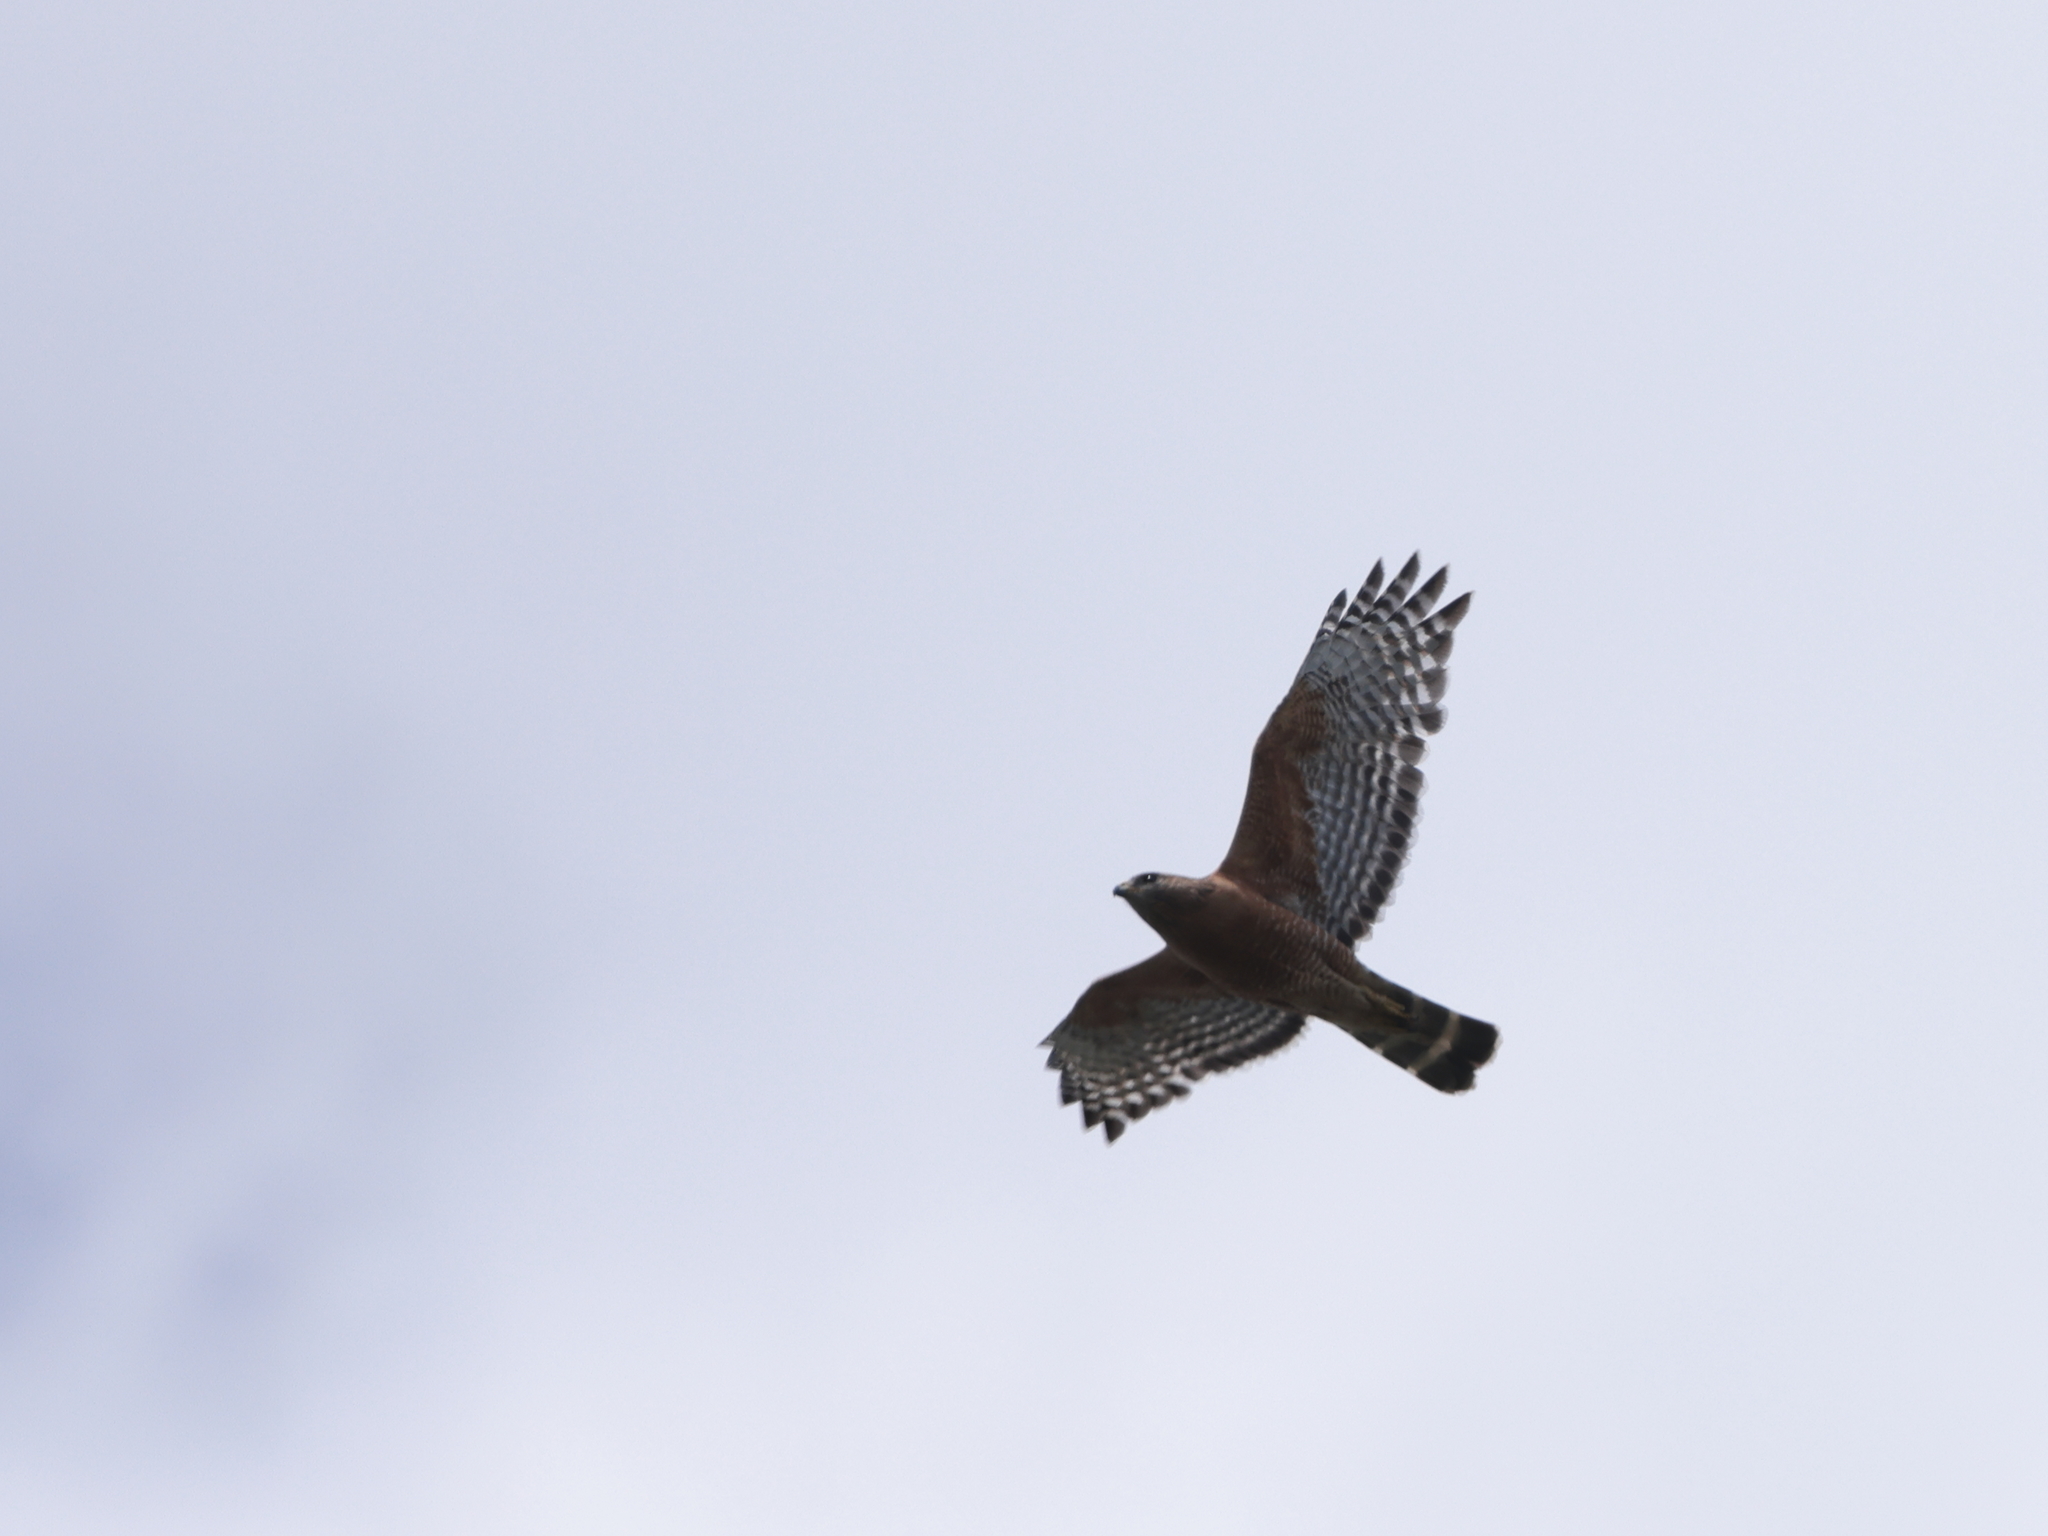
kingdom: Animalia
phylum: Chordata
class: Aves
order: Accipitriformes
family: Accipitridae
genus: Buteo
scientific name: Buteo lineatus
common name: Red-shouldered hawk
